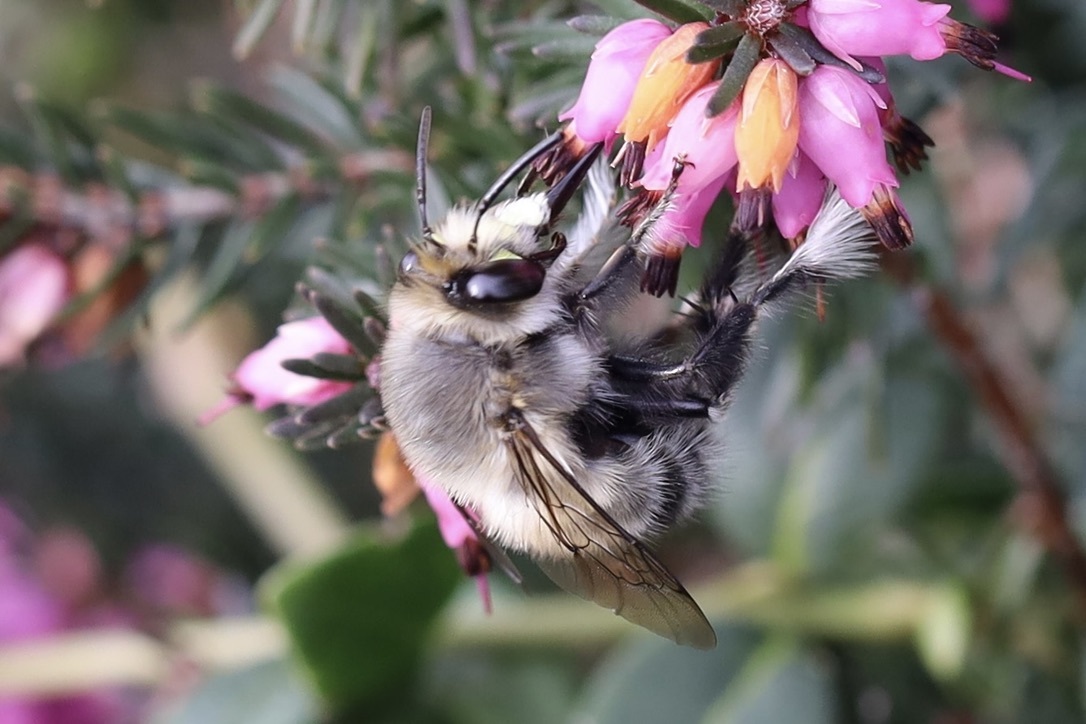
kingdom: Animalia
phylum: Arthropoda
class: Insecta
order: Hymenoptera
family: Apidae
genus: Anthophora
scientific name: Anthophora pacifica
